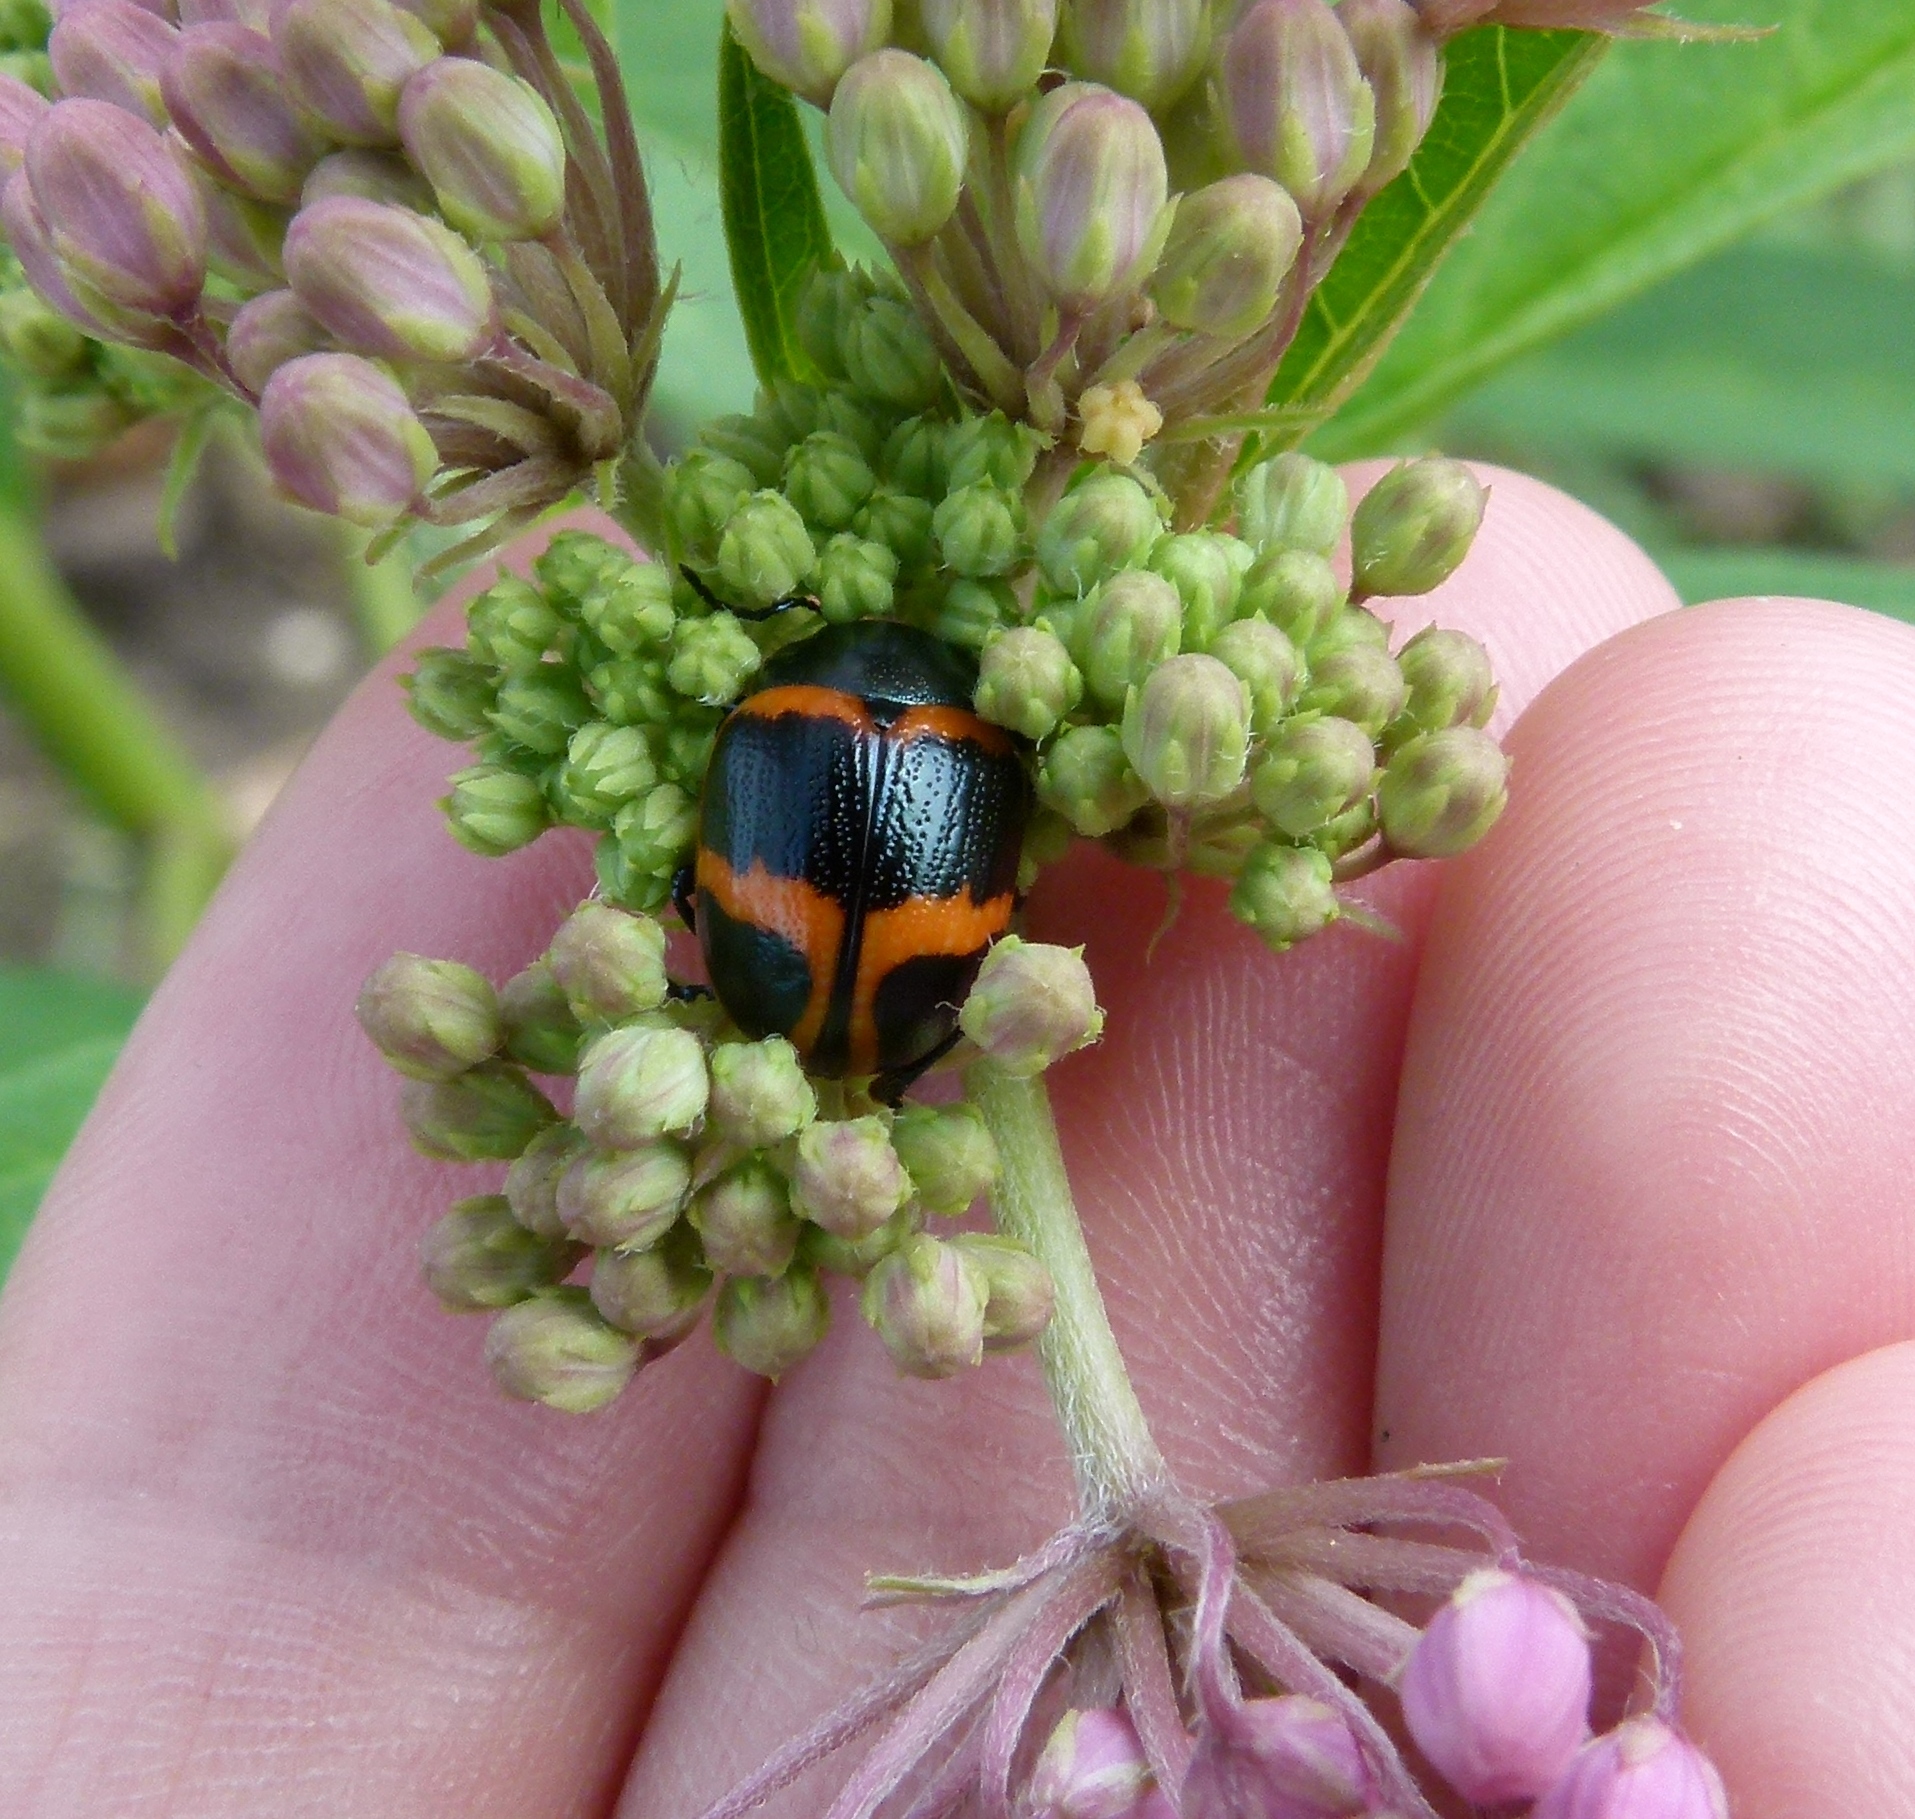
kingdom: Animalia
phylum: Arthropoda
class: Insecta
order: Coleoptera
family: Chrysomelidae
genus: Labidomera
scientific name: Labidomera clivicollis
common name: Swamp milkweed leaf beetle
